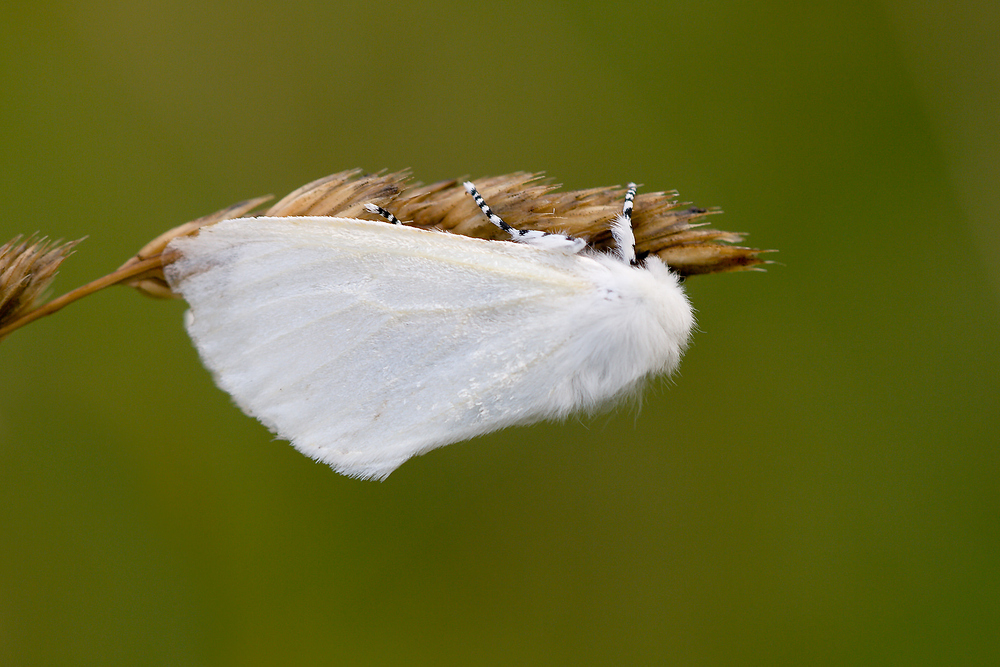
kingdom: Animalia
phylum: Arthropoda
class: Insecta
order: Lepidoptera
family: Erebidae
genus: Leucoma
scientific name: Leucoma salicis
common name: White satin moth
